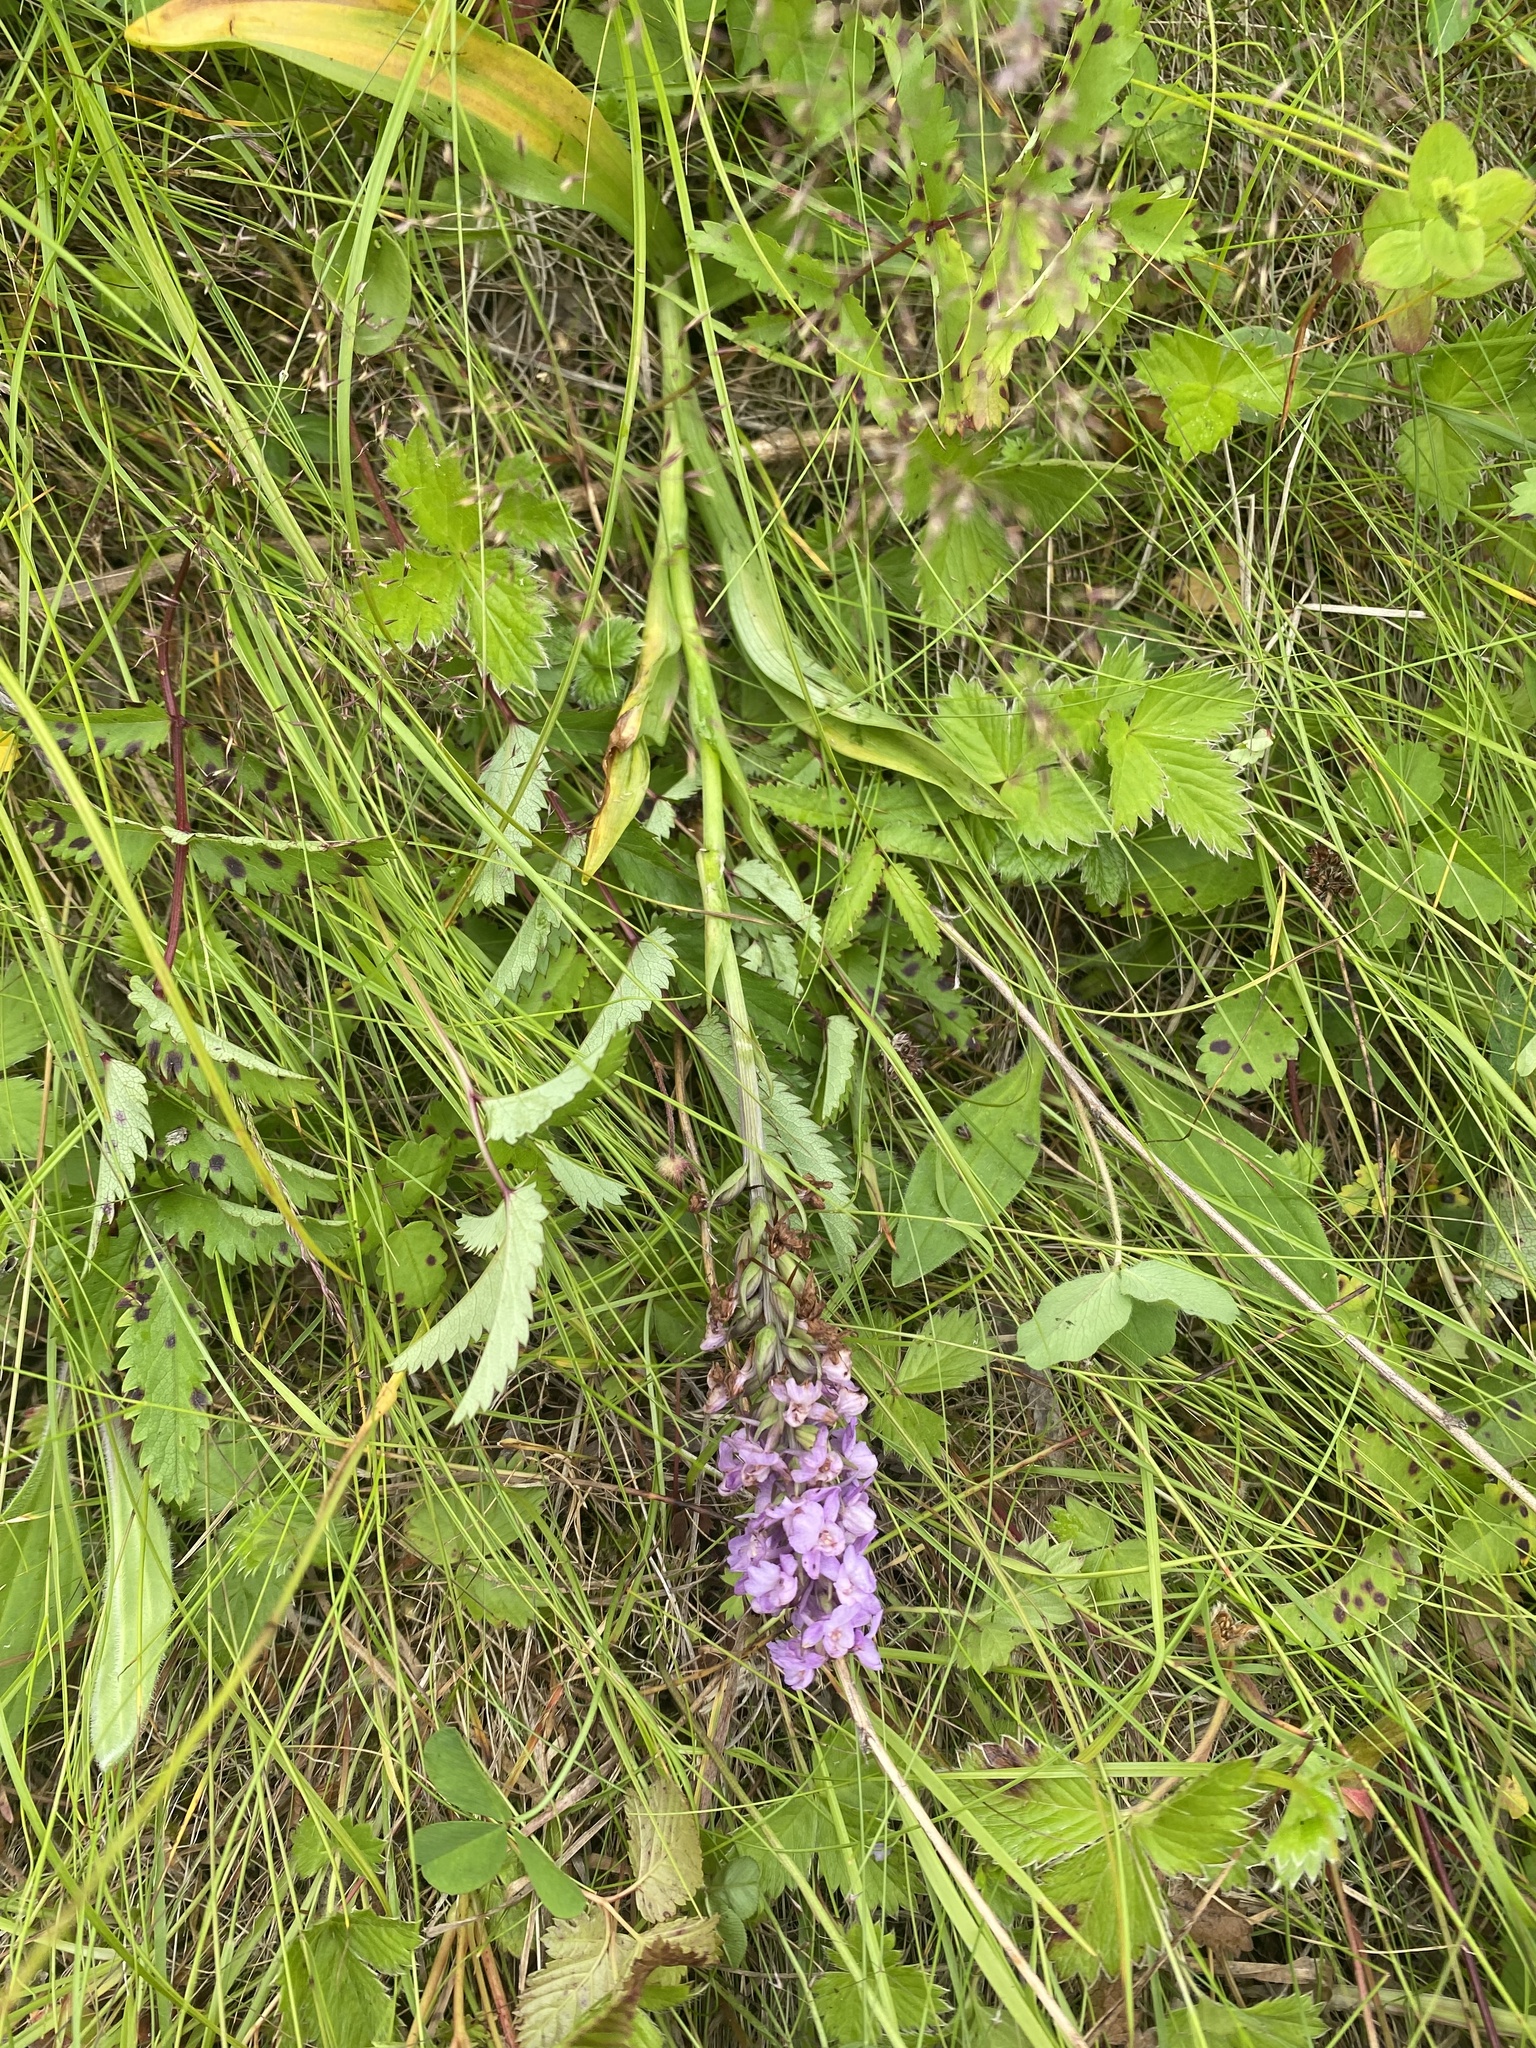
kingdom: Plantae
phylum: Tracheophyta
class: Liliopsida
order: Asparagales
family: Orchidaceae
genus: Gymnadenia
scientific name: Gymnadenia conopsea
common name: Fragrant orchid
